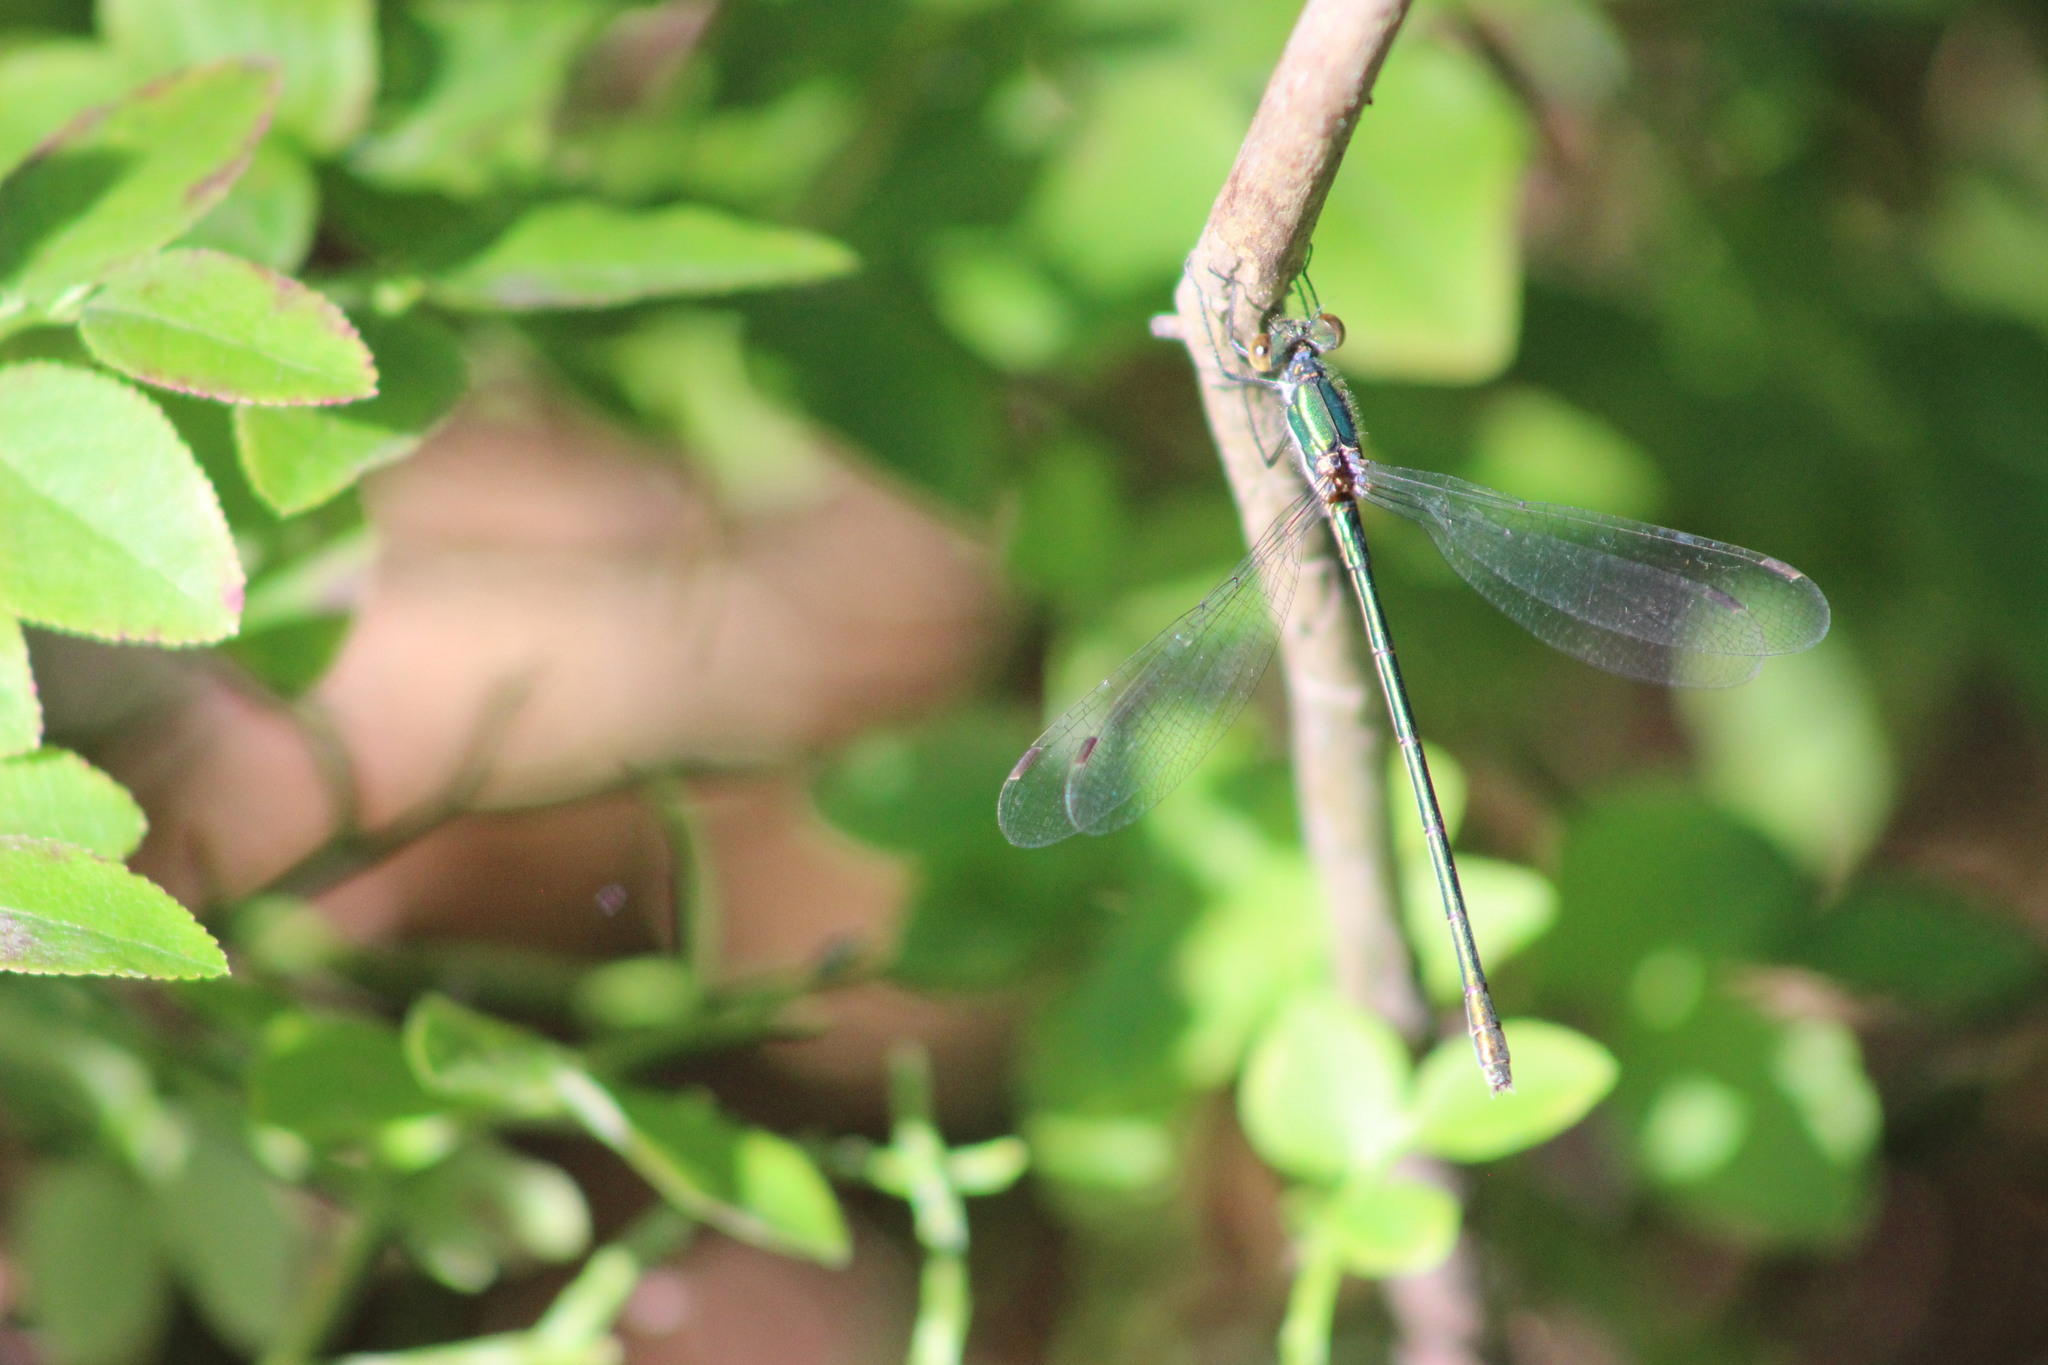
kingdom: Animalia
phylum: Arthropoda
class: Insecta
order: Odonata
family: Lestidae
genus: Lestes
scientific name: Lestes sponsa
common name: Common spreadwing
